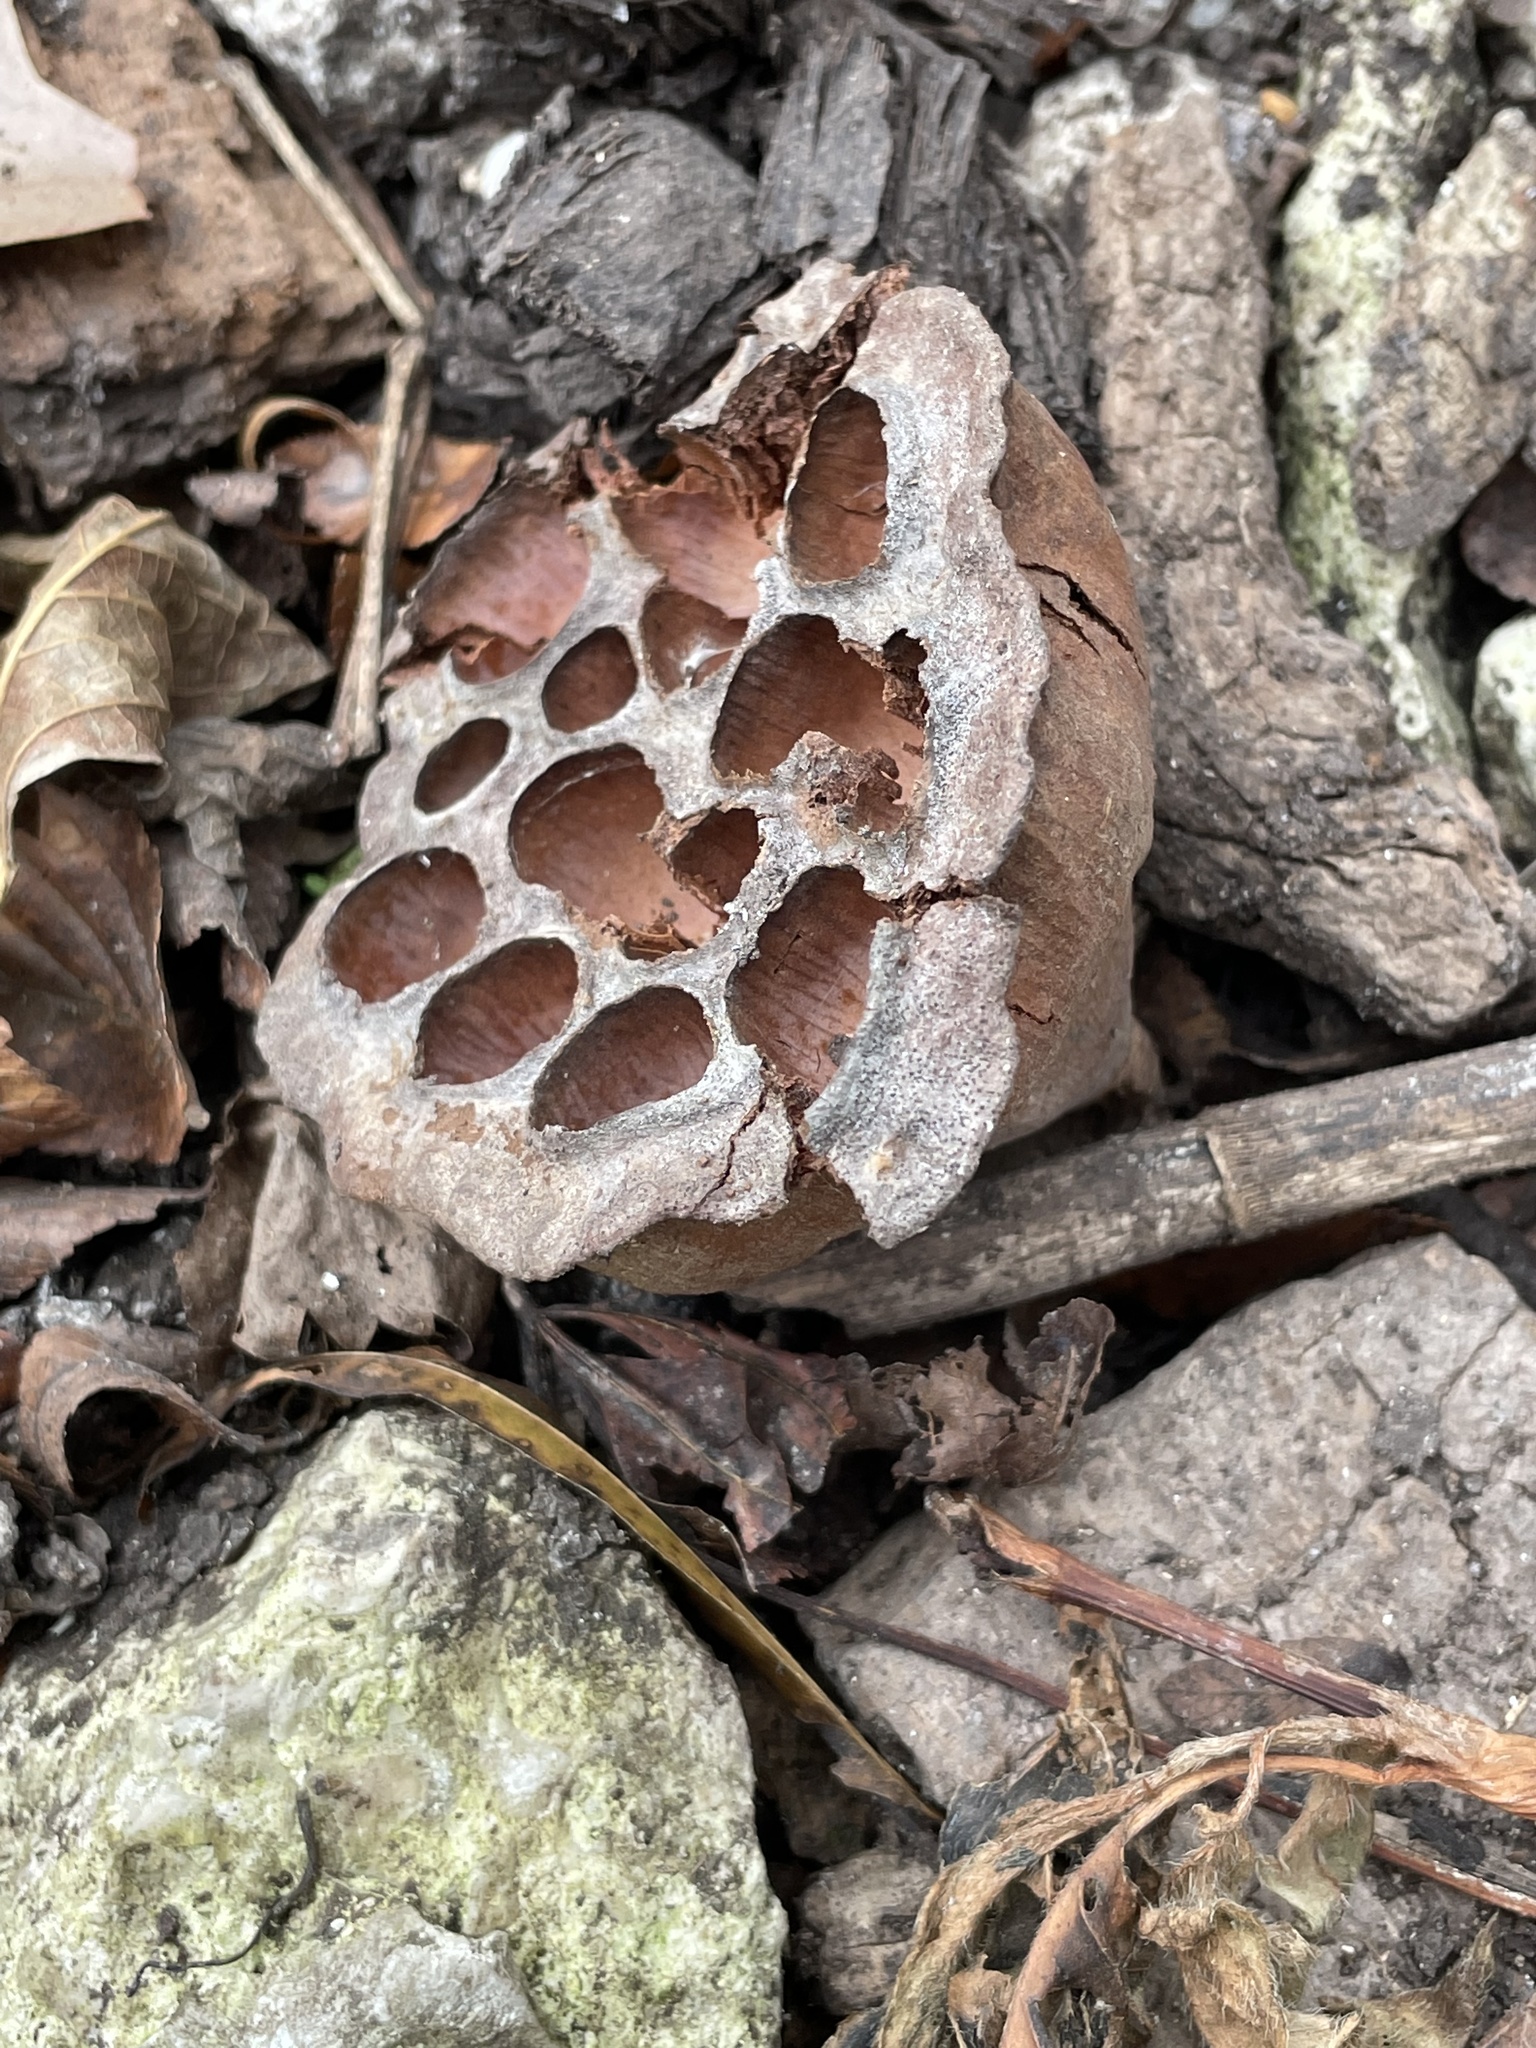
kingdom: Plantae
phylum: Tracheophyta
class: Magnoliopsida
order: Proteales
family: Nelumbonaceae
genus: Nelumbo
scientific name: Nelumbo lutea
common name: American lotus
